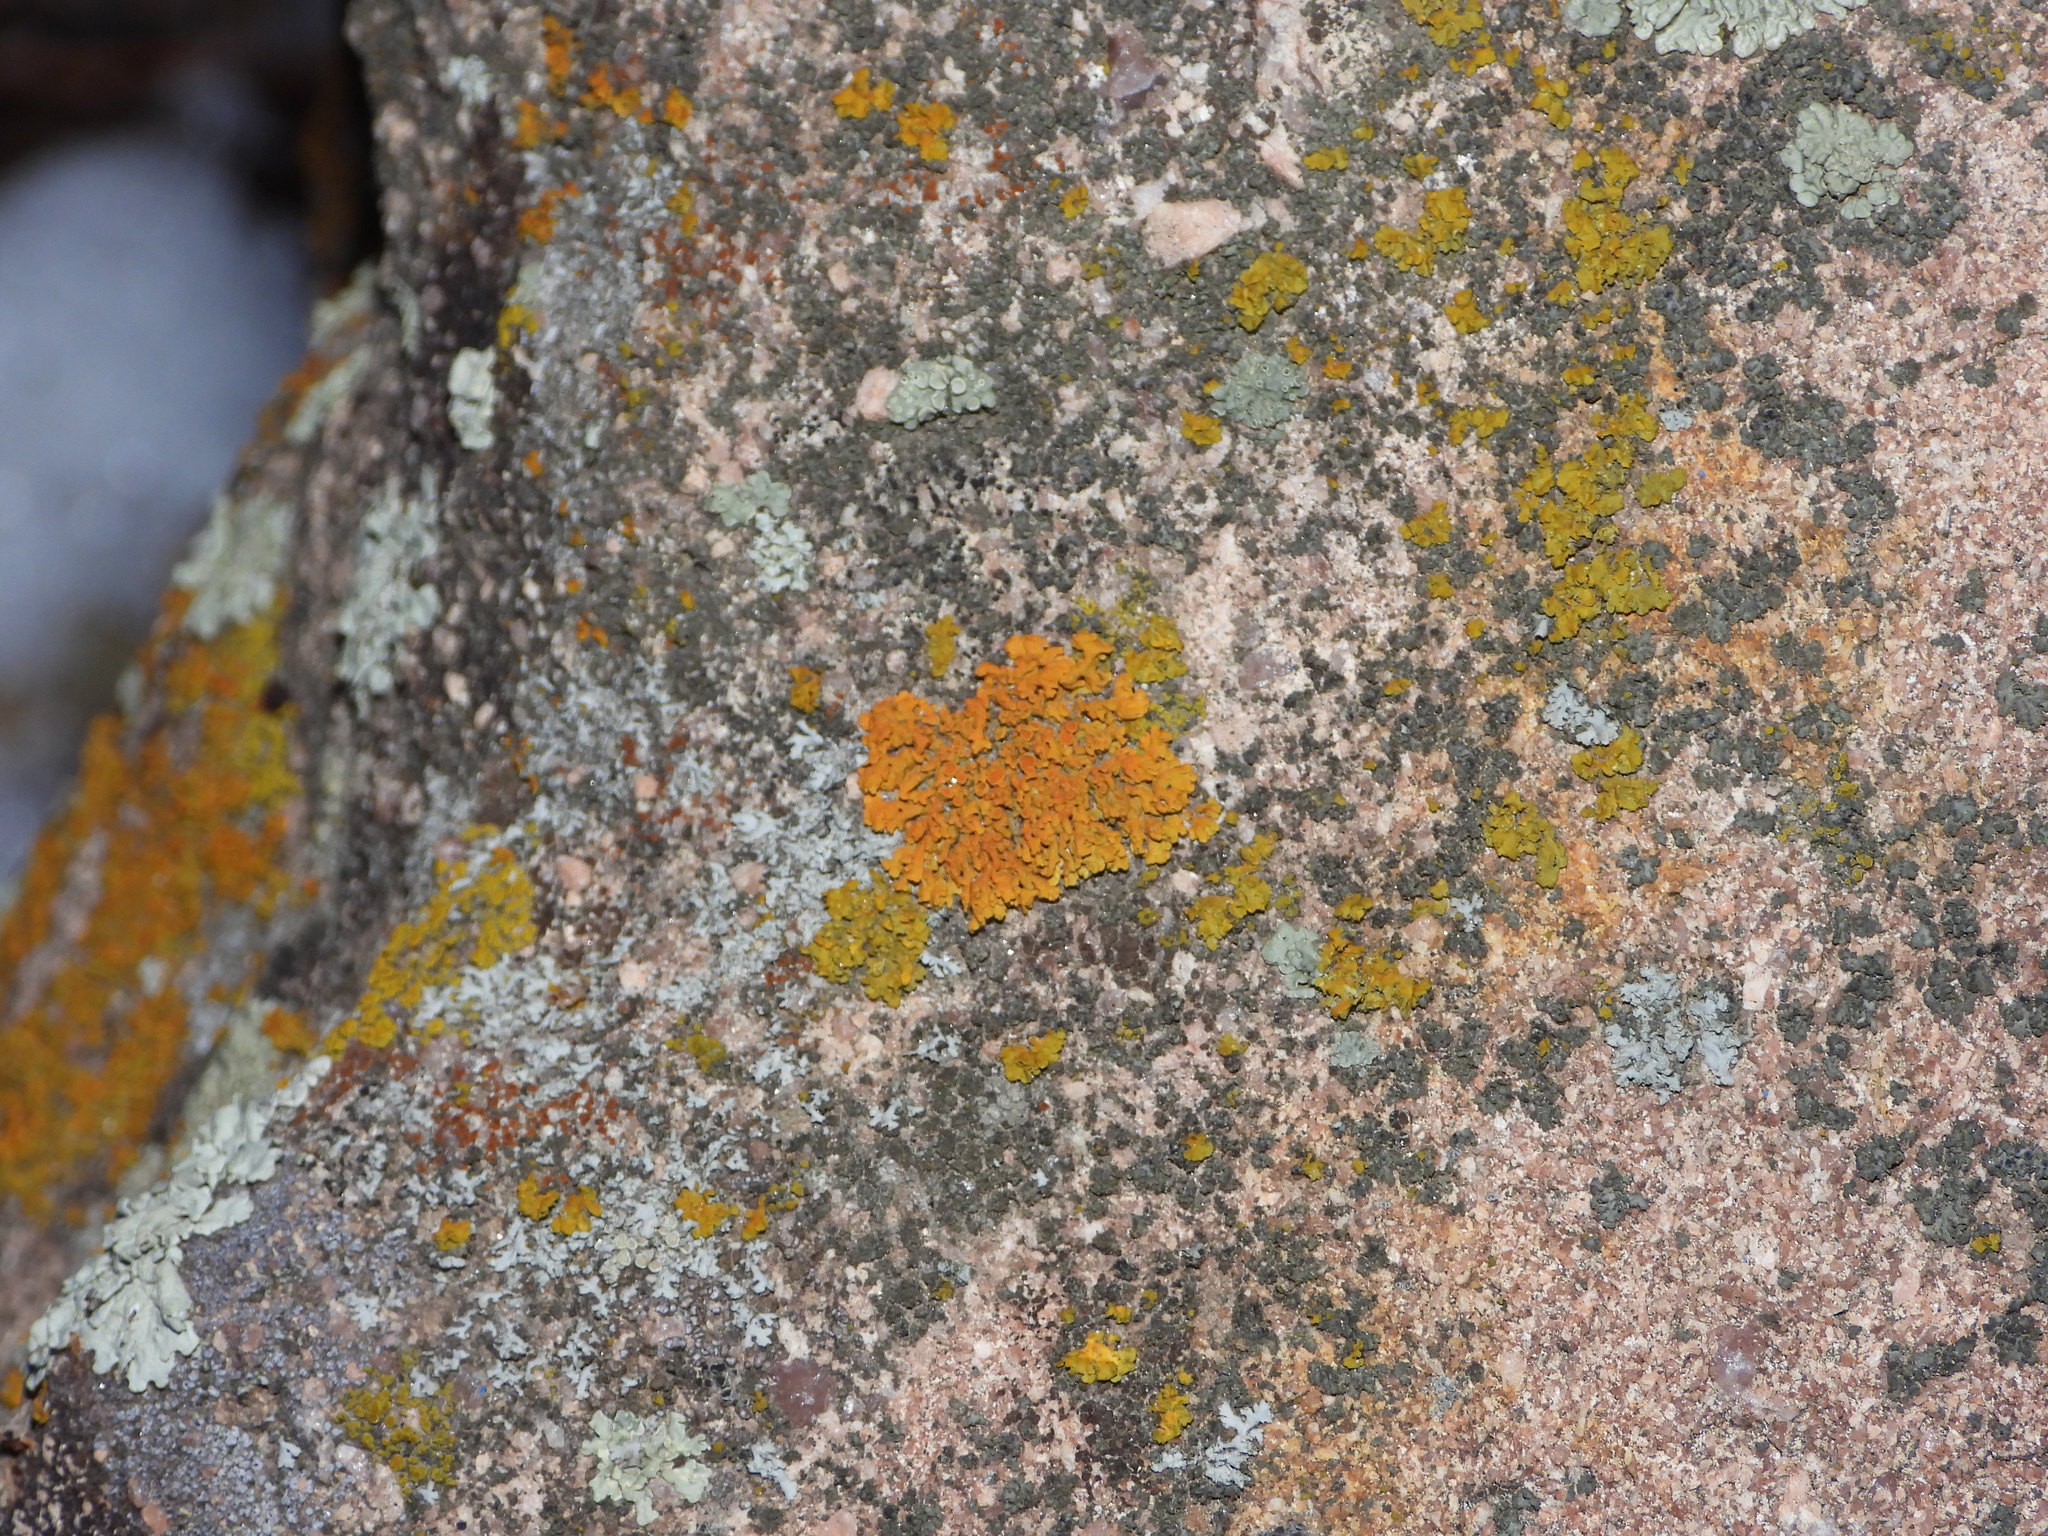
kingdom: Fungi
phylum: Ascomycota
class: Lecanoromycetes
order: Teloschistales
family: Teloschistaceae
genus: Xanthoria
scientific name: Xanthoria elegans
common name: Elegant sunburst lichen
